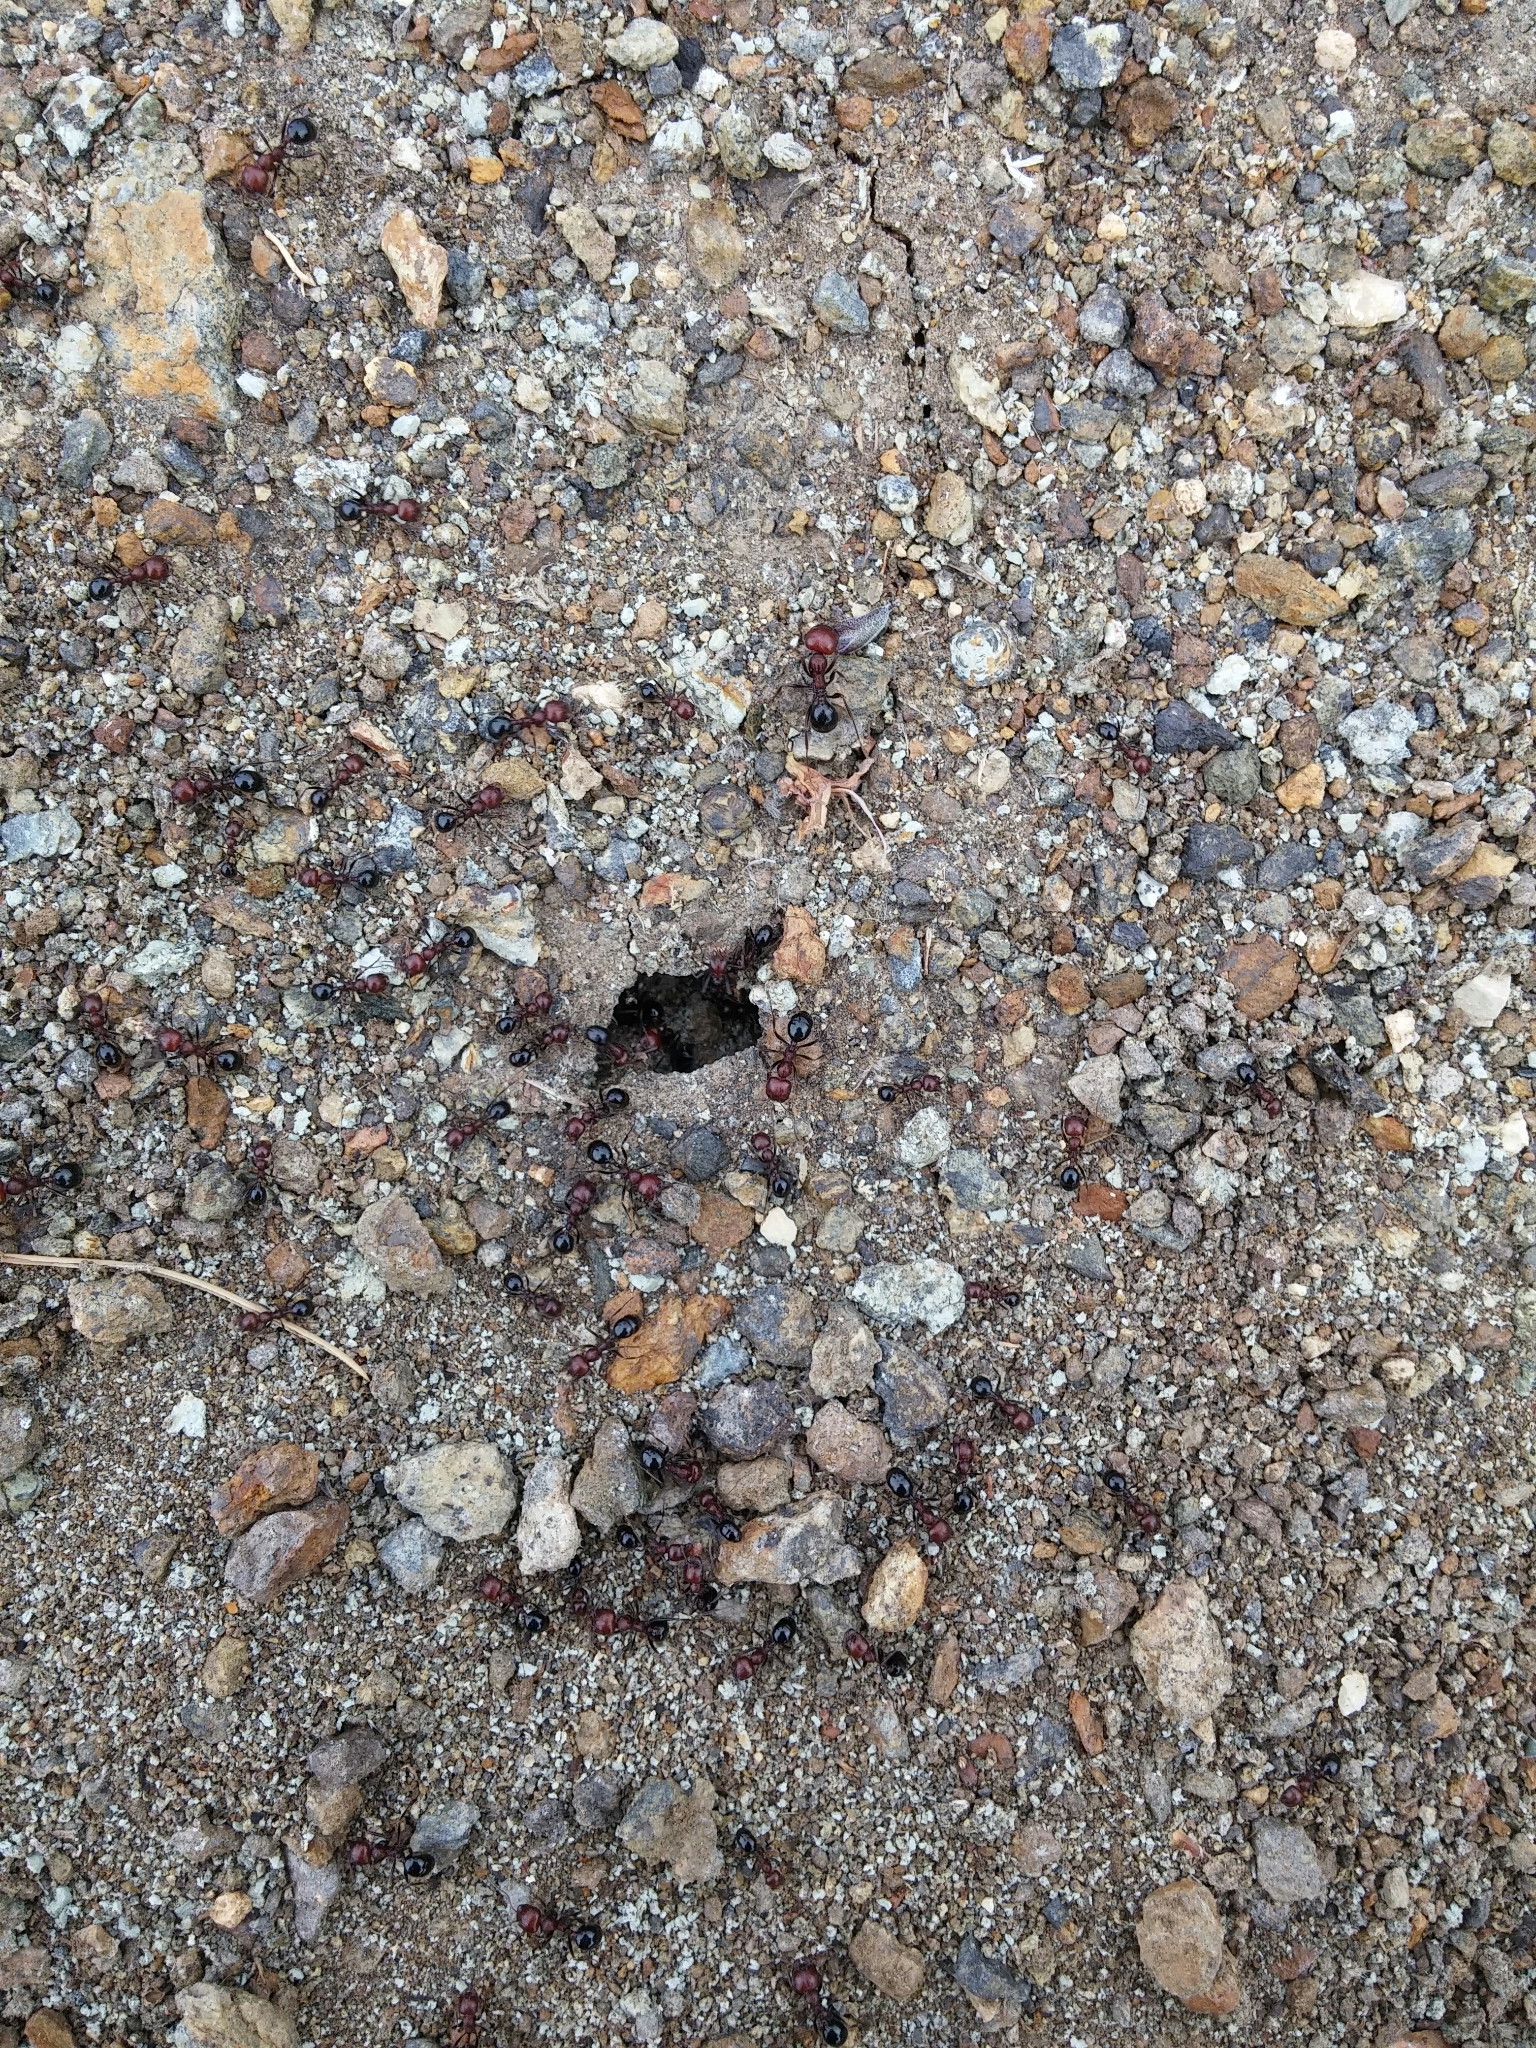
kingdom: Animalia
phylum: Arthropoda
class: Insecta
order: Hymenoptera
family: Formicidae
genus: Messor
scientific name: Messor minor
